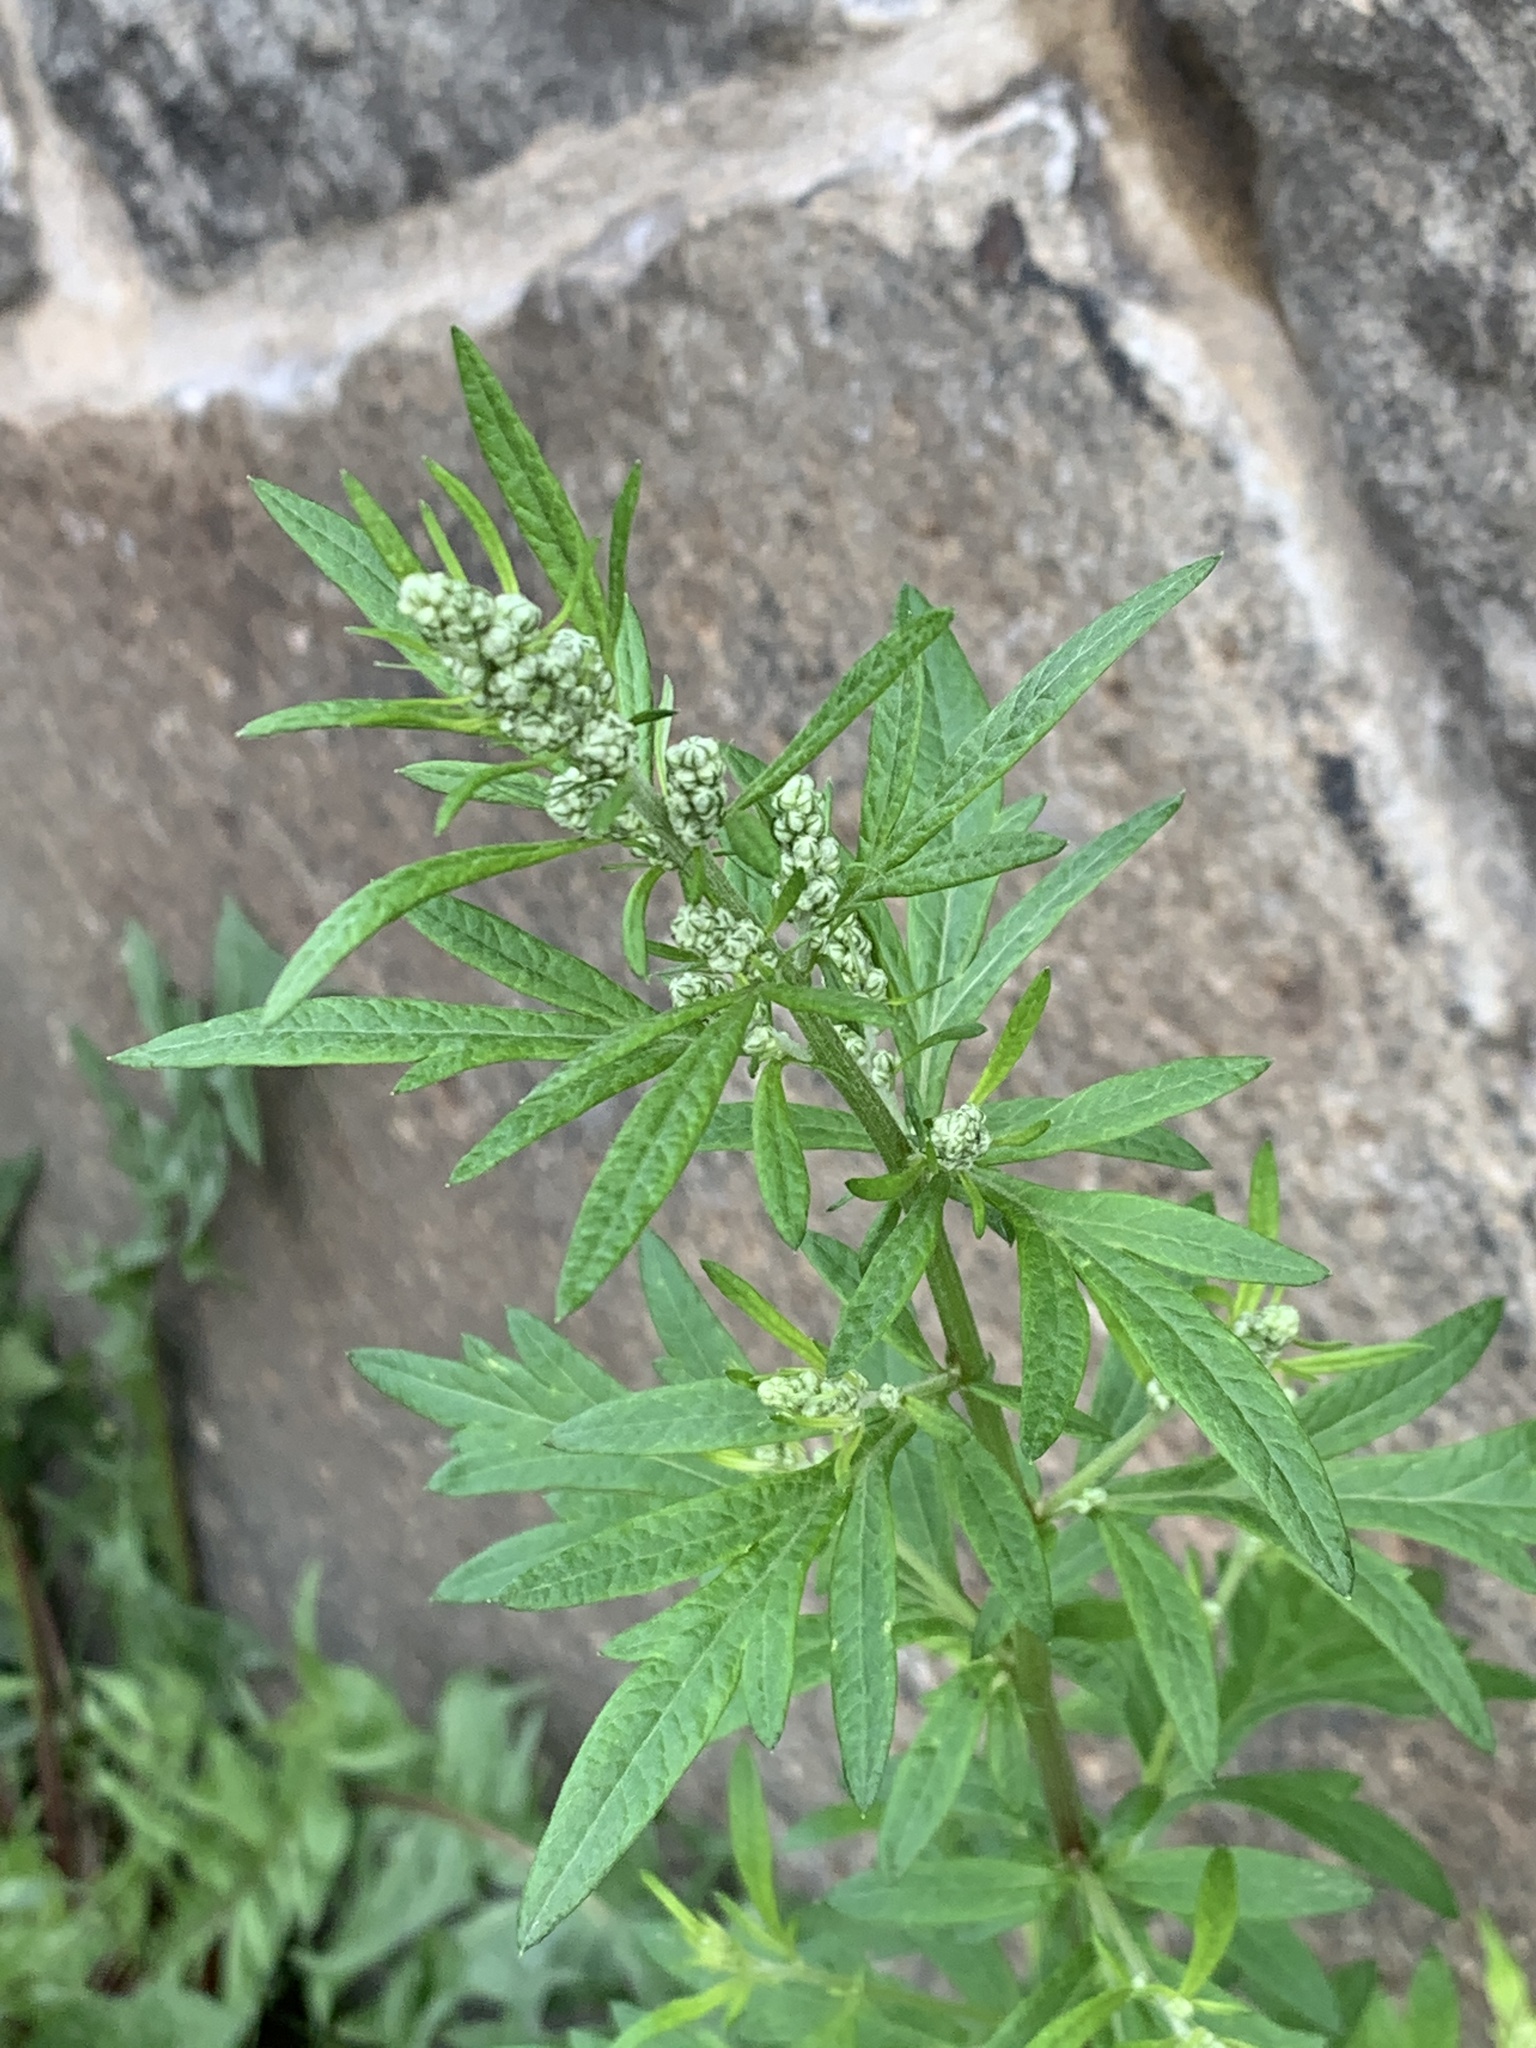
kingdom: Plantae
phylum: Tracheophyta
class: Magnoliopsida
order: Asterales
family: Asteraceae
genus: Artemisia
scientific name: Artemisia vulgaris
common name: Mugwort
